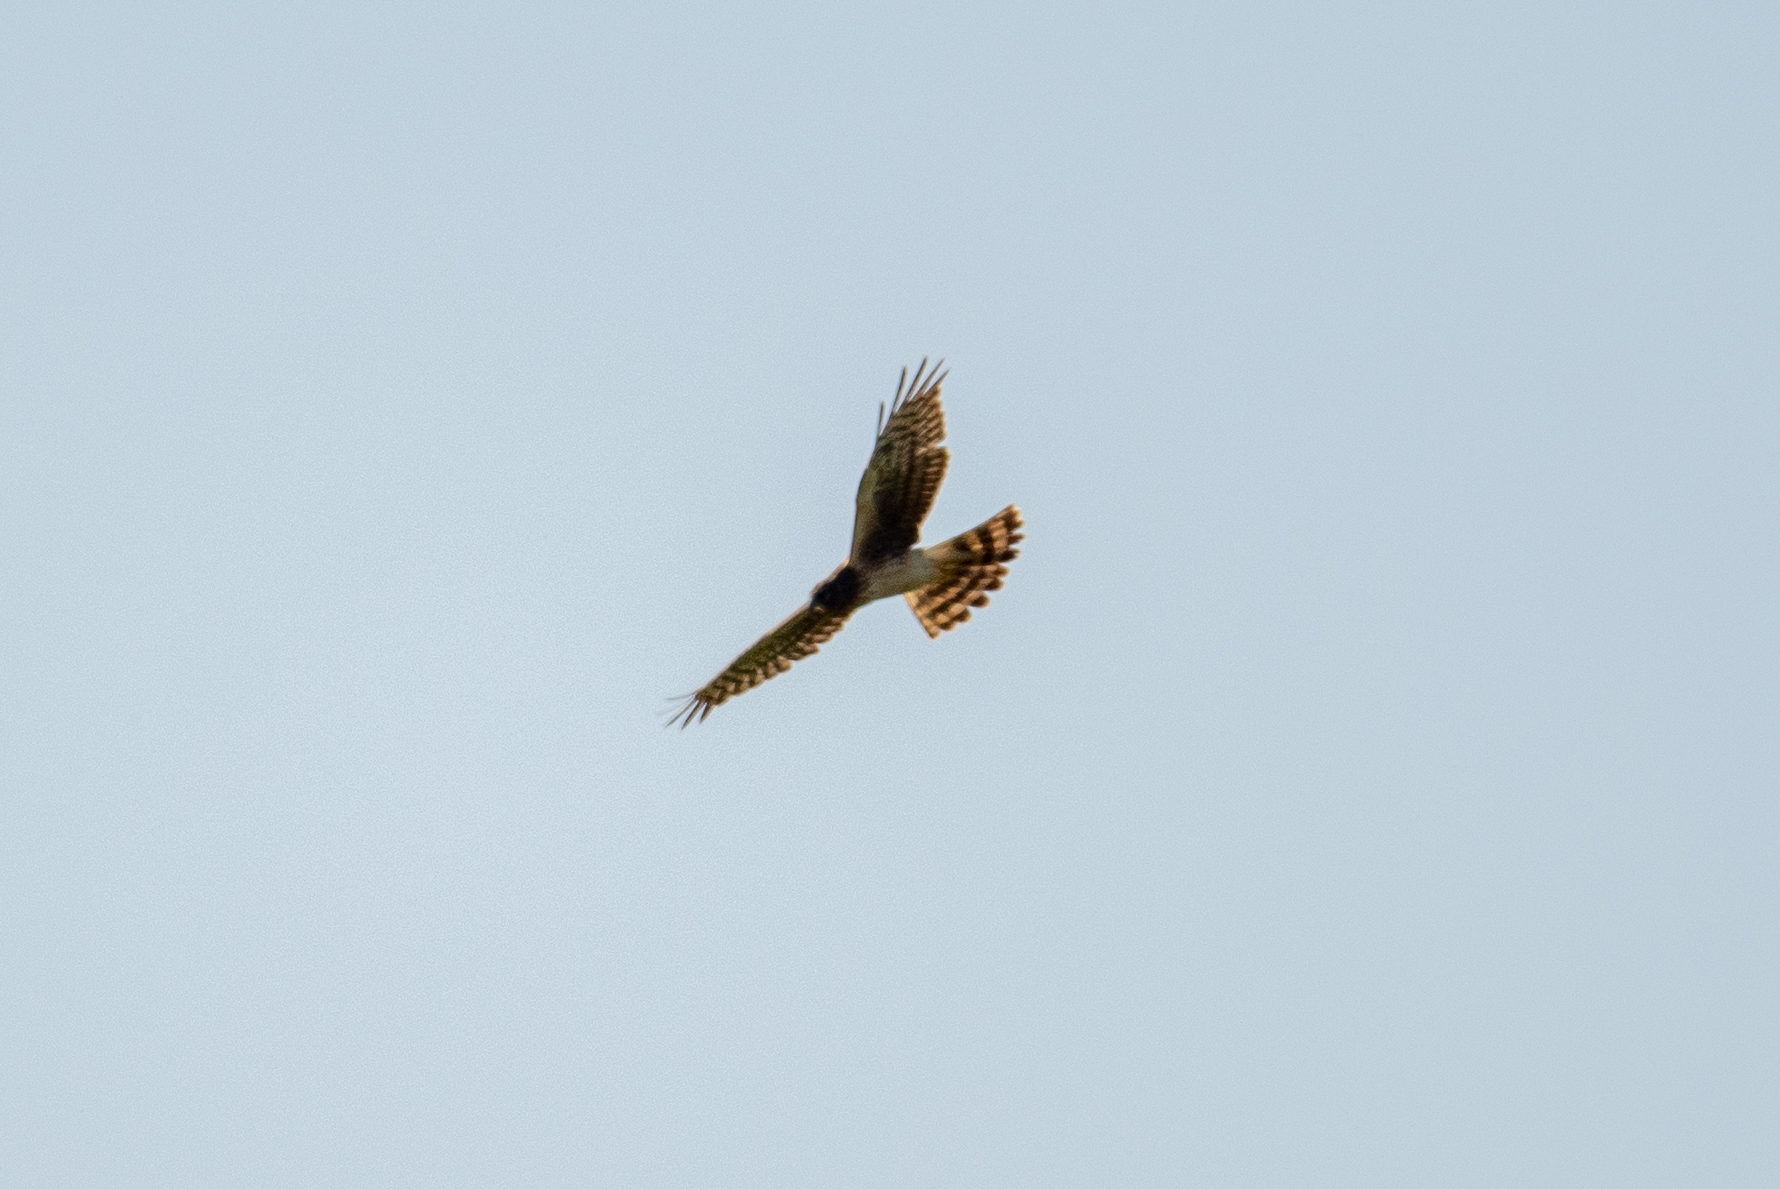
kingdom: Animalia
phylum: Chordata
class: Aves
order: Accipitriformes
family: Accipitridae
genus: Circus
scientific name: Circus cyaneus
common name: Hen harrier
